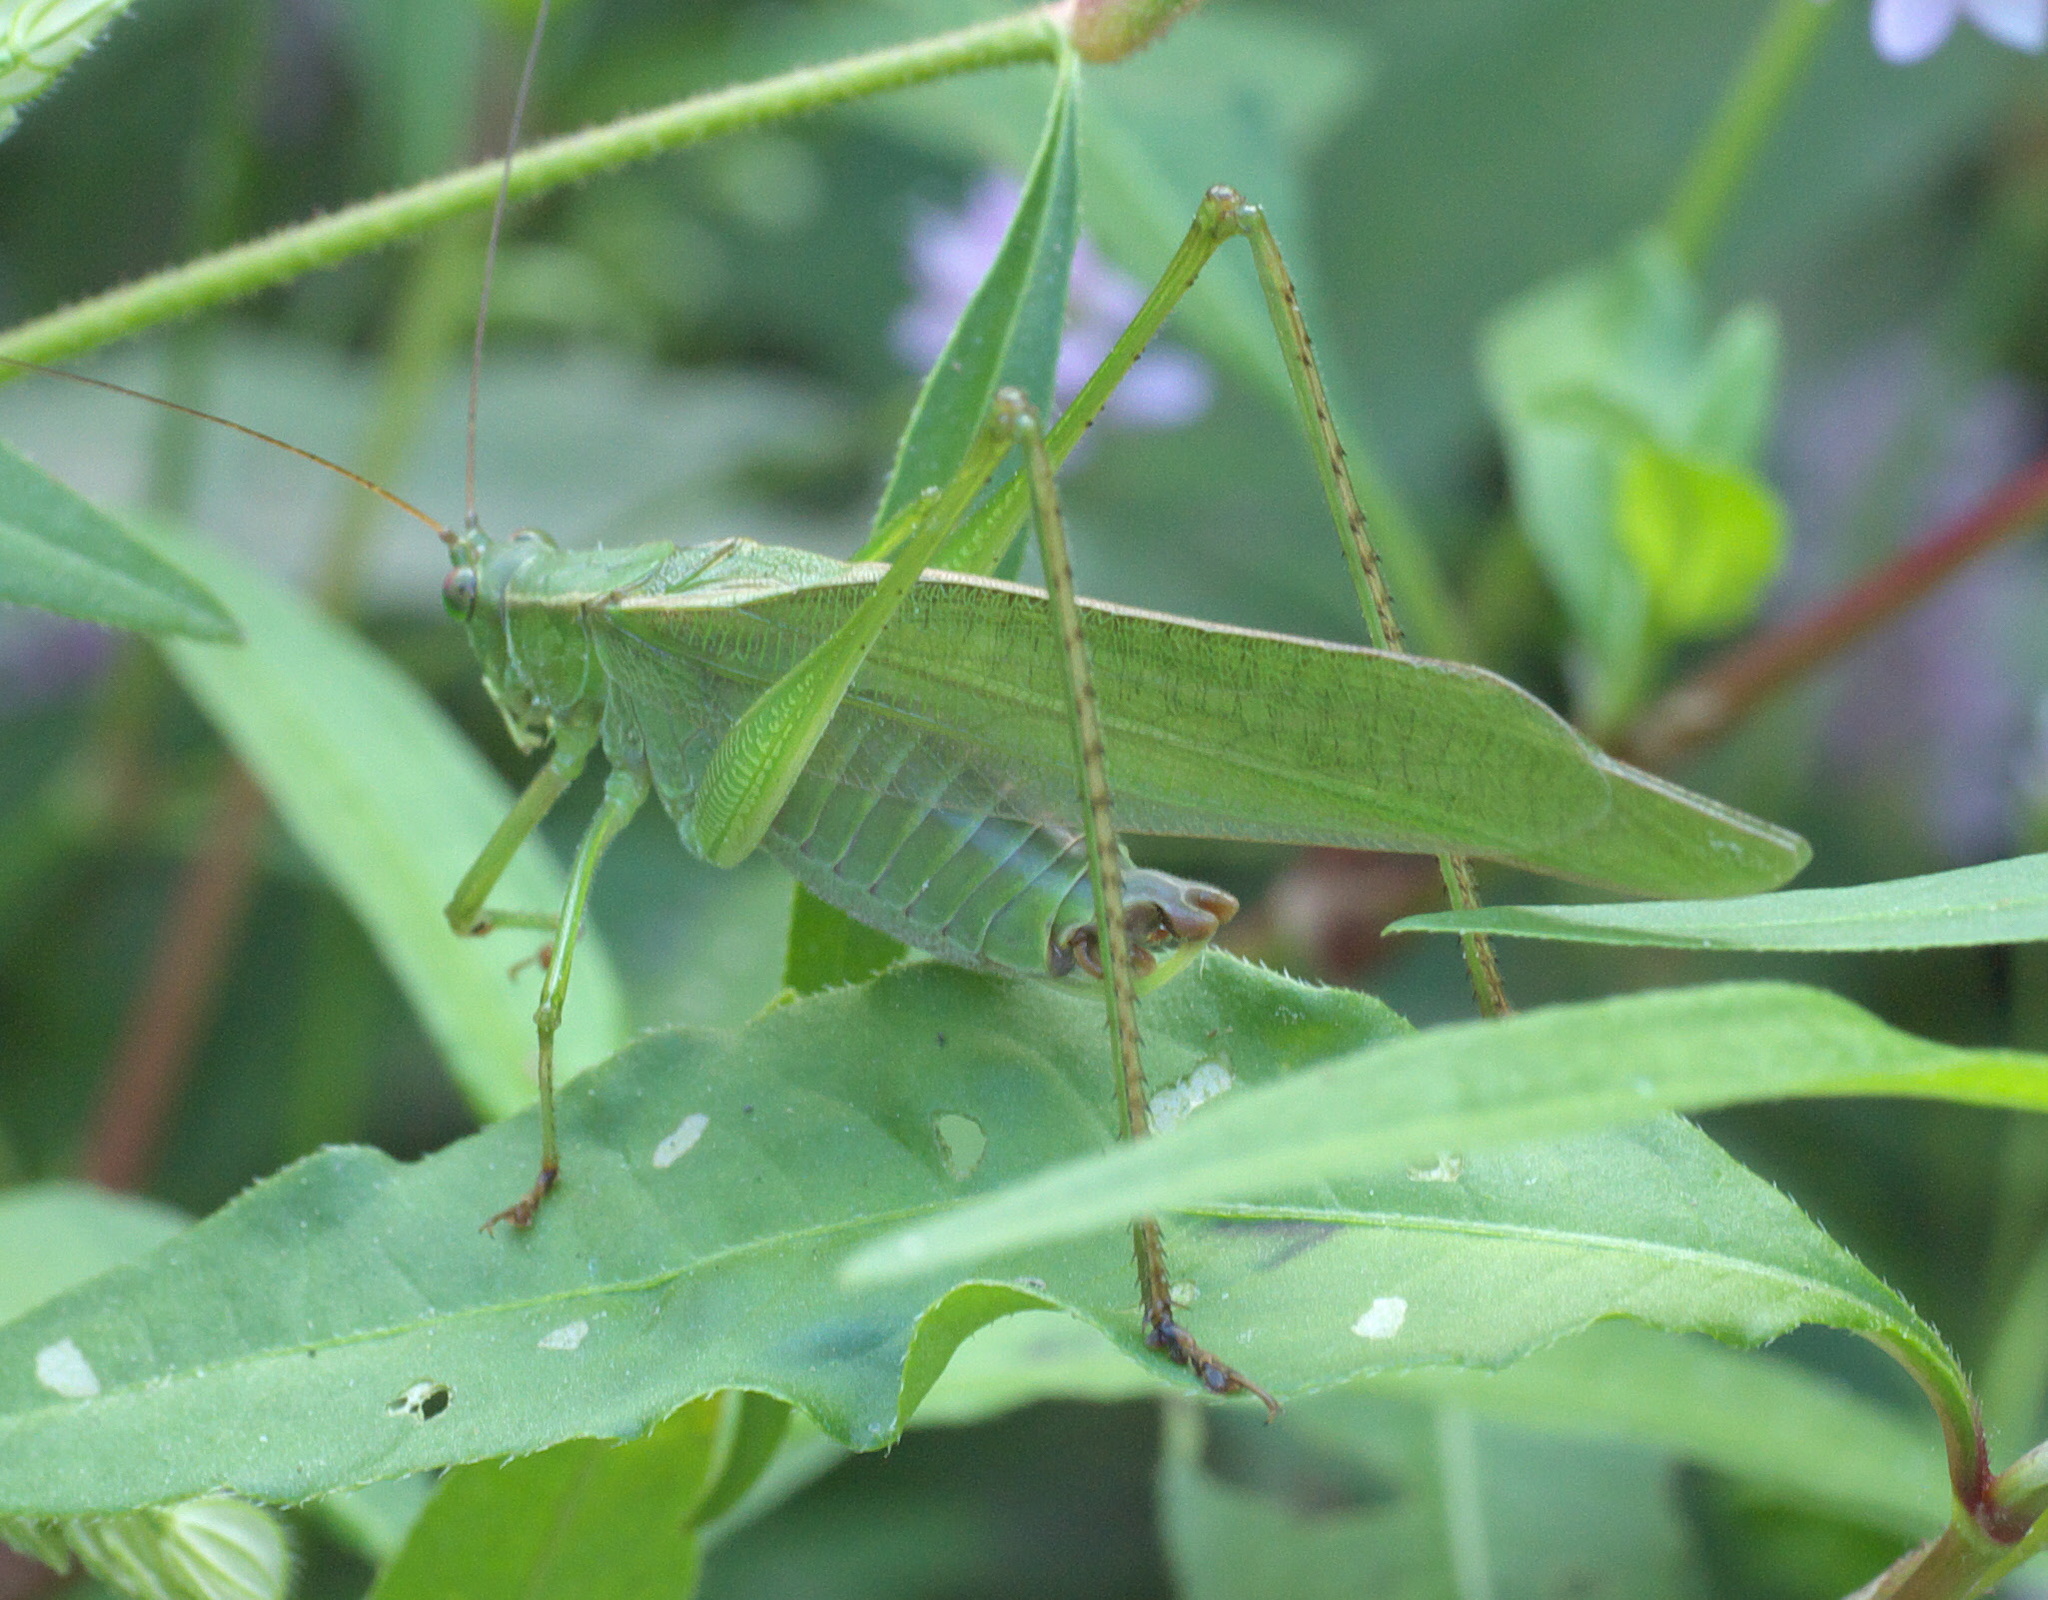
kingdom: Animalia
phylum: Arthropoda
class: Insecta
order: Orthoptera
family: Tettigoniidae
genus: Scudderia
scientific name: Scudderia furcata
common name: Fork-tailed bush katydid
